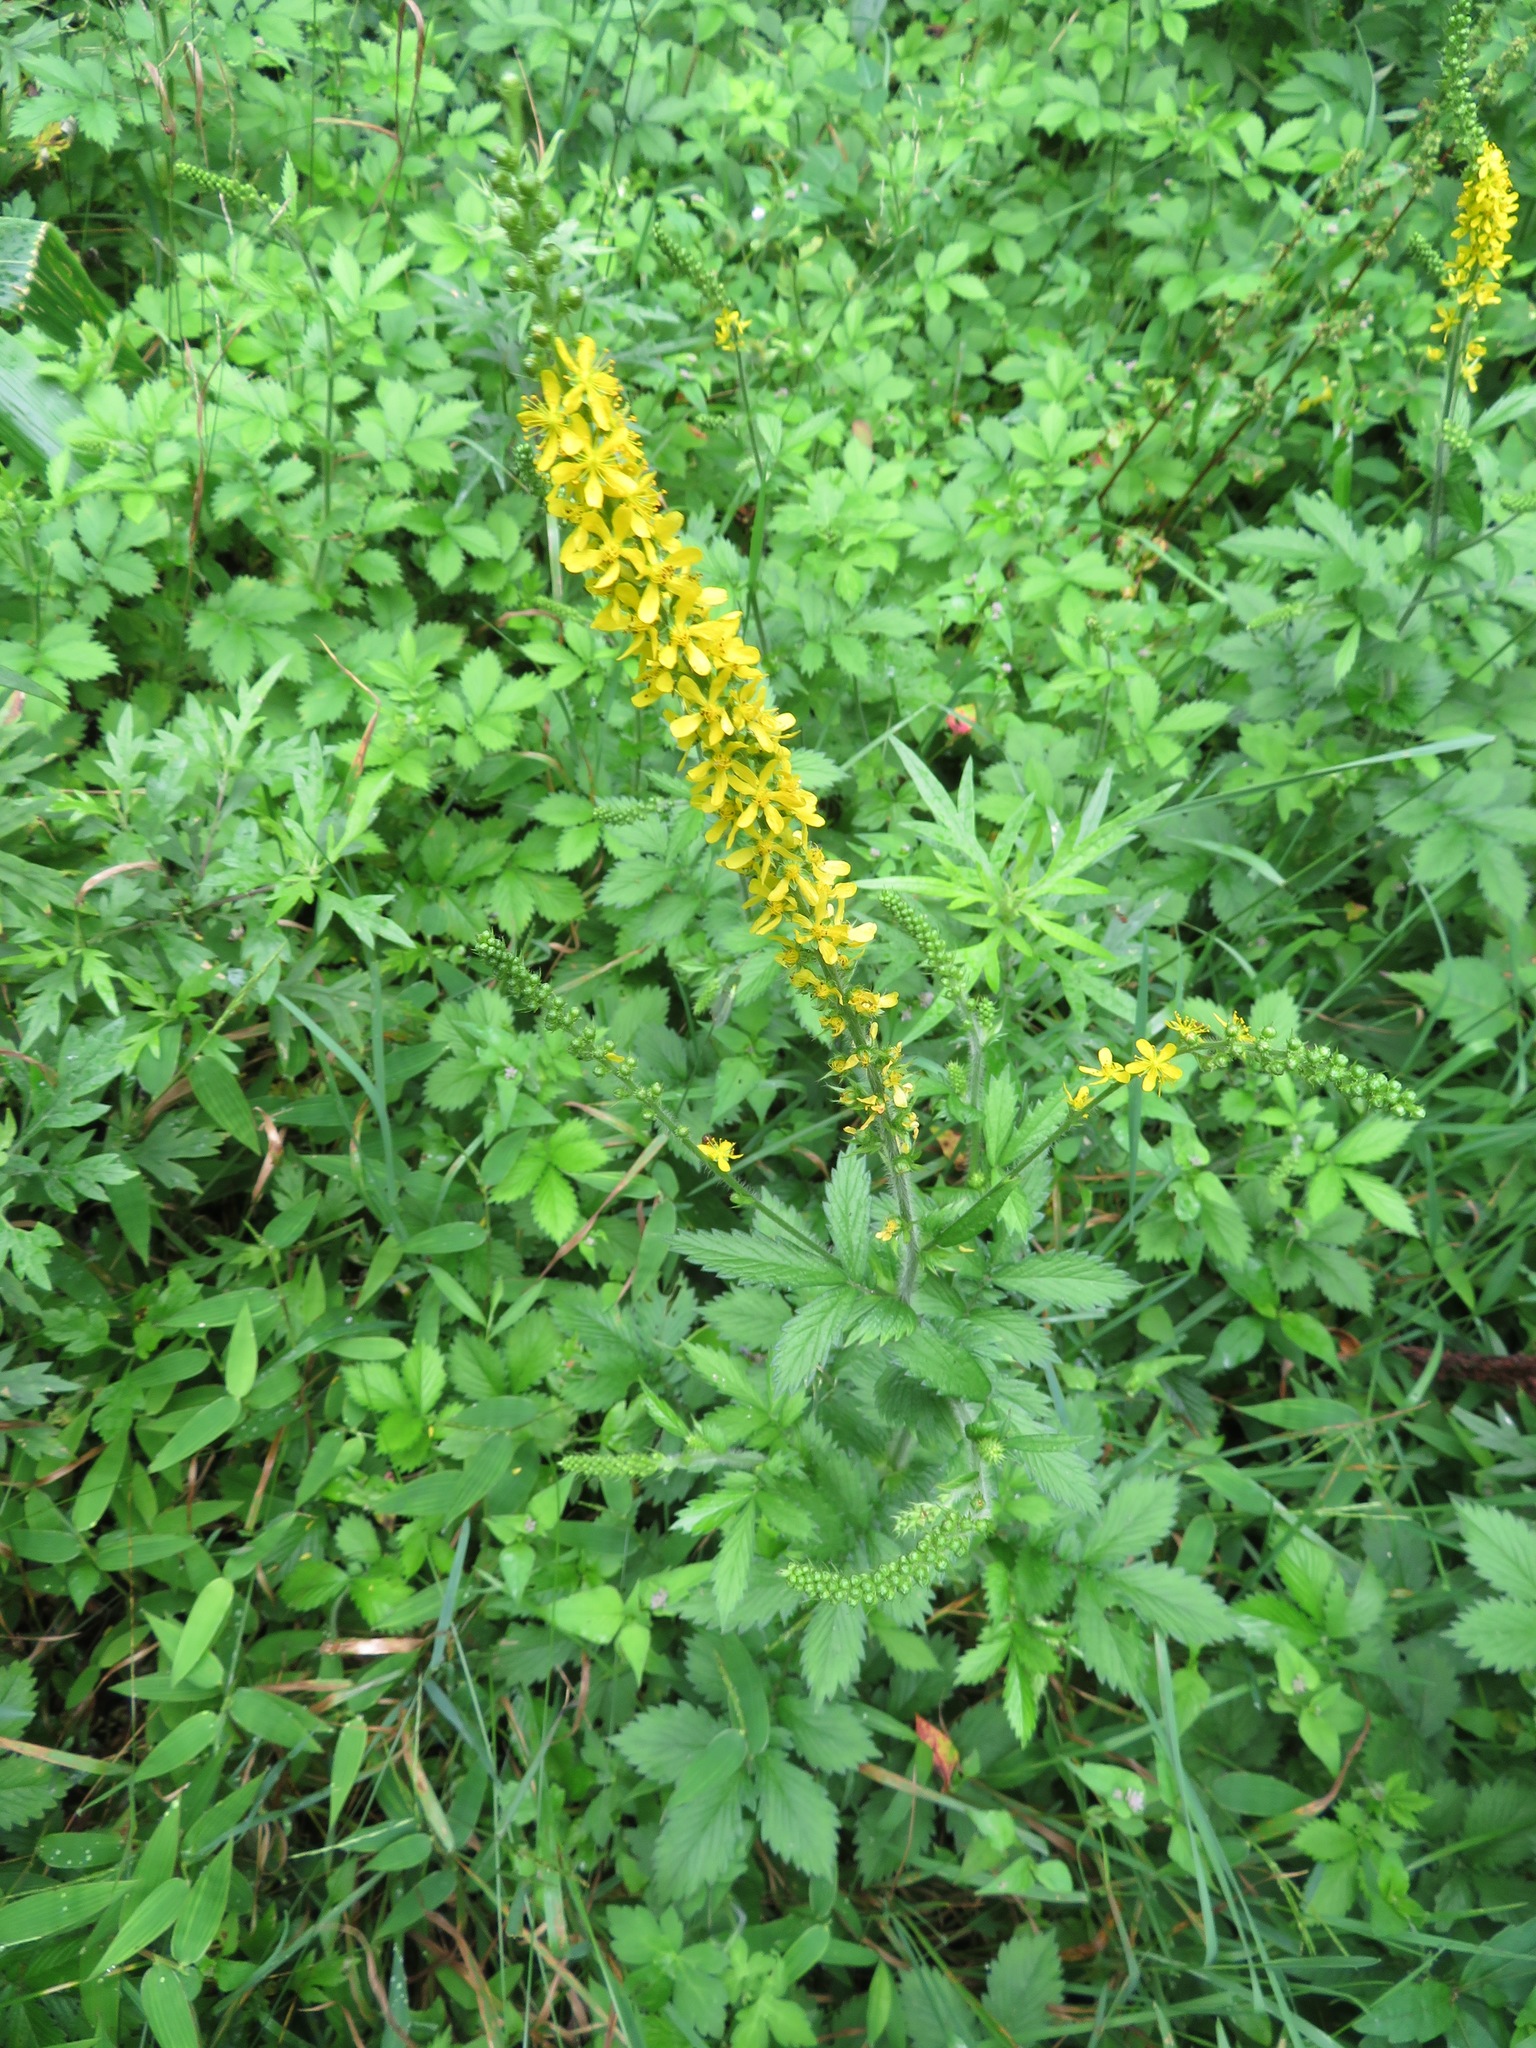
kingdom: Plantae
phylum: Tracheophyta
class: Magnoliopsida
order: Rosales
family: Rosaceae
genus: Agrimonia
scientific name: Agrimonia pilosa
